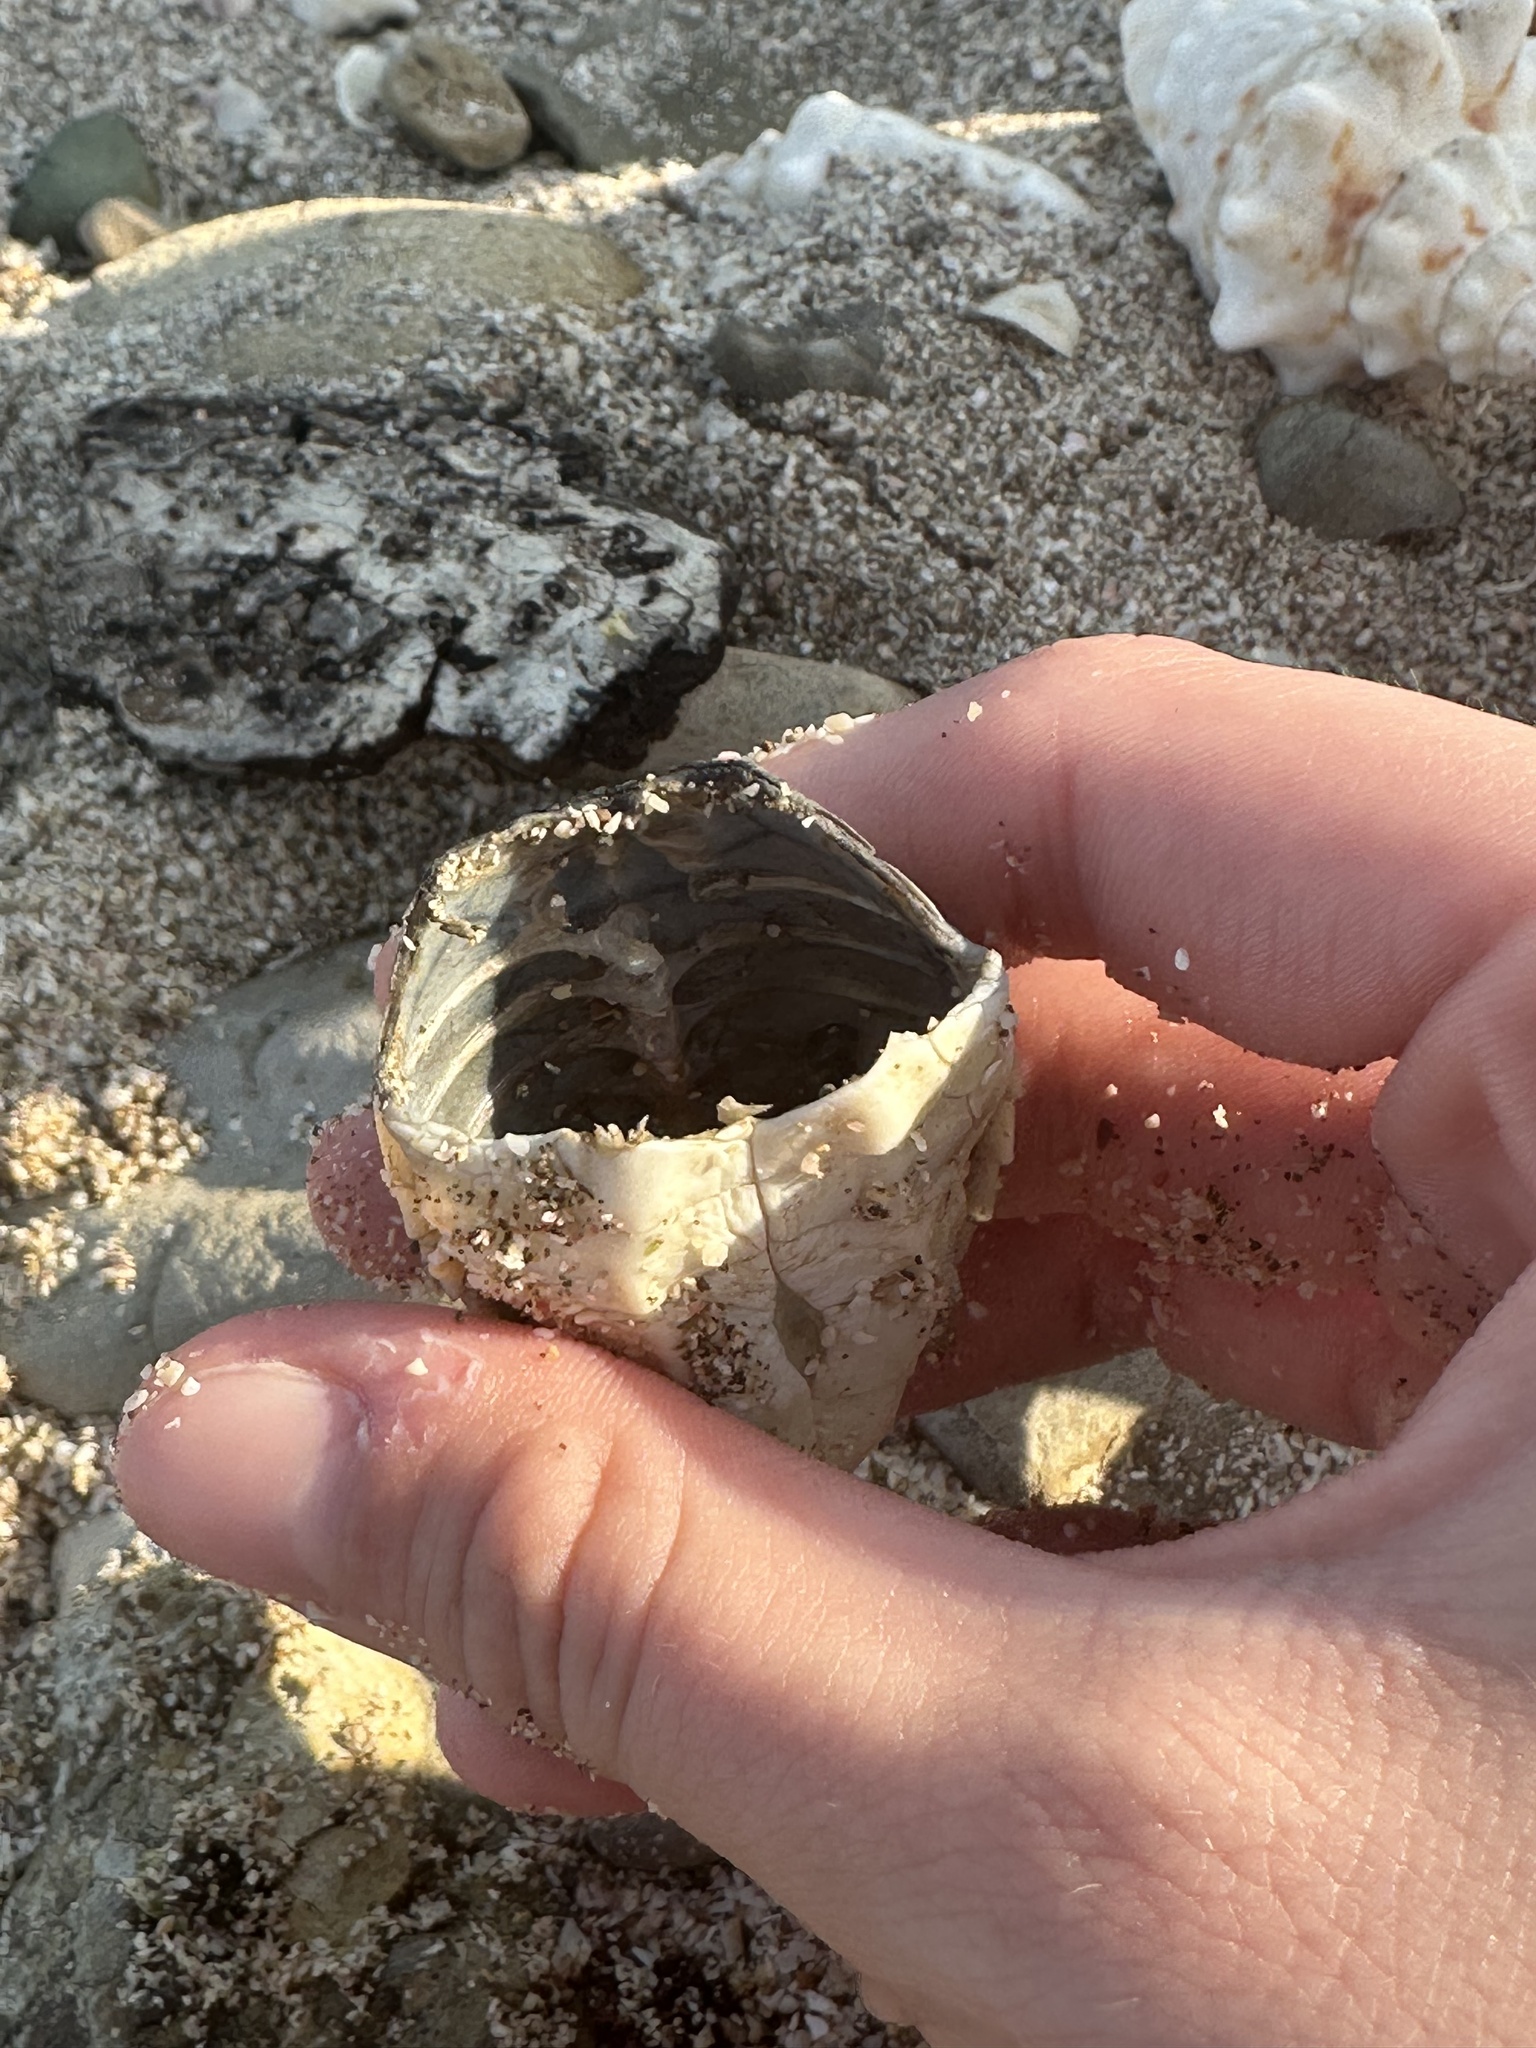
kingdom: Animalia
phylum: Chordata
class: Testudines
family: Cheloniidae
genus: Chelonia
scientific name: Chelonia mydas
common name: Green turtle
